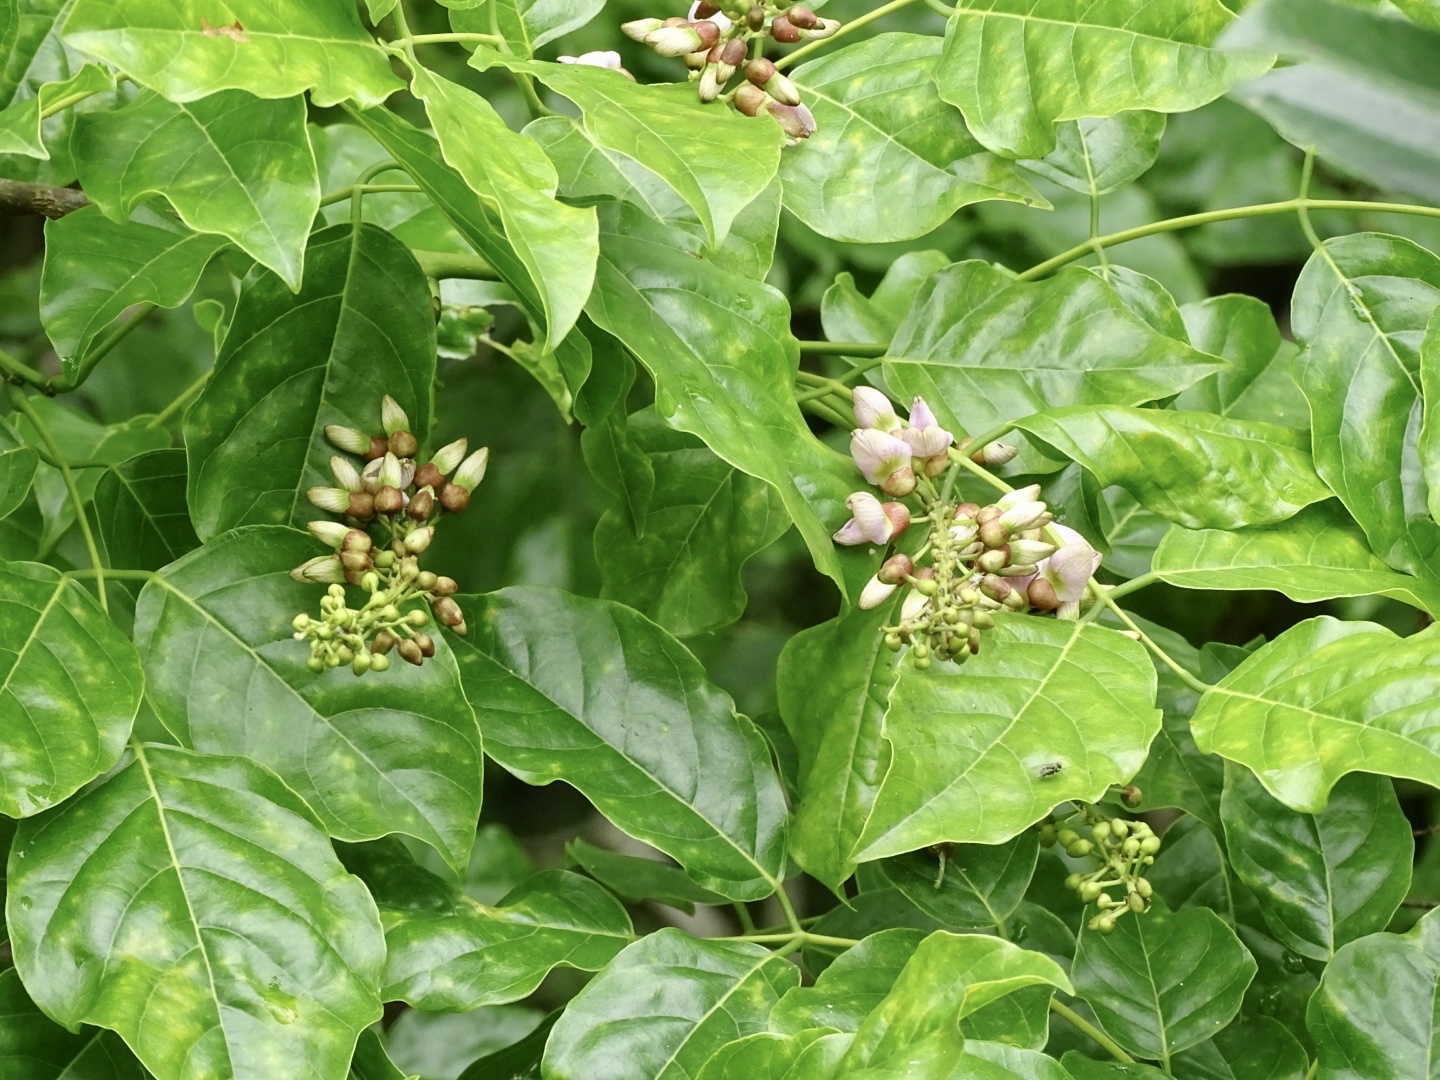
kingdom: Plantae
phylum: Tracheophyta
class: Magnoliopsida
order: Fabales
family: Fabaceae
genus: Pongamia
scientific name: Pongamia pinnata
